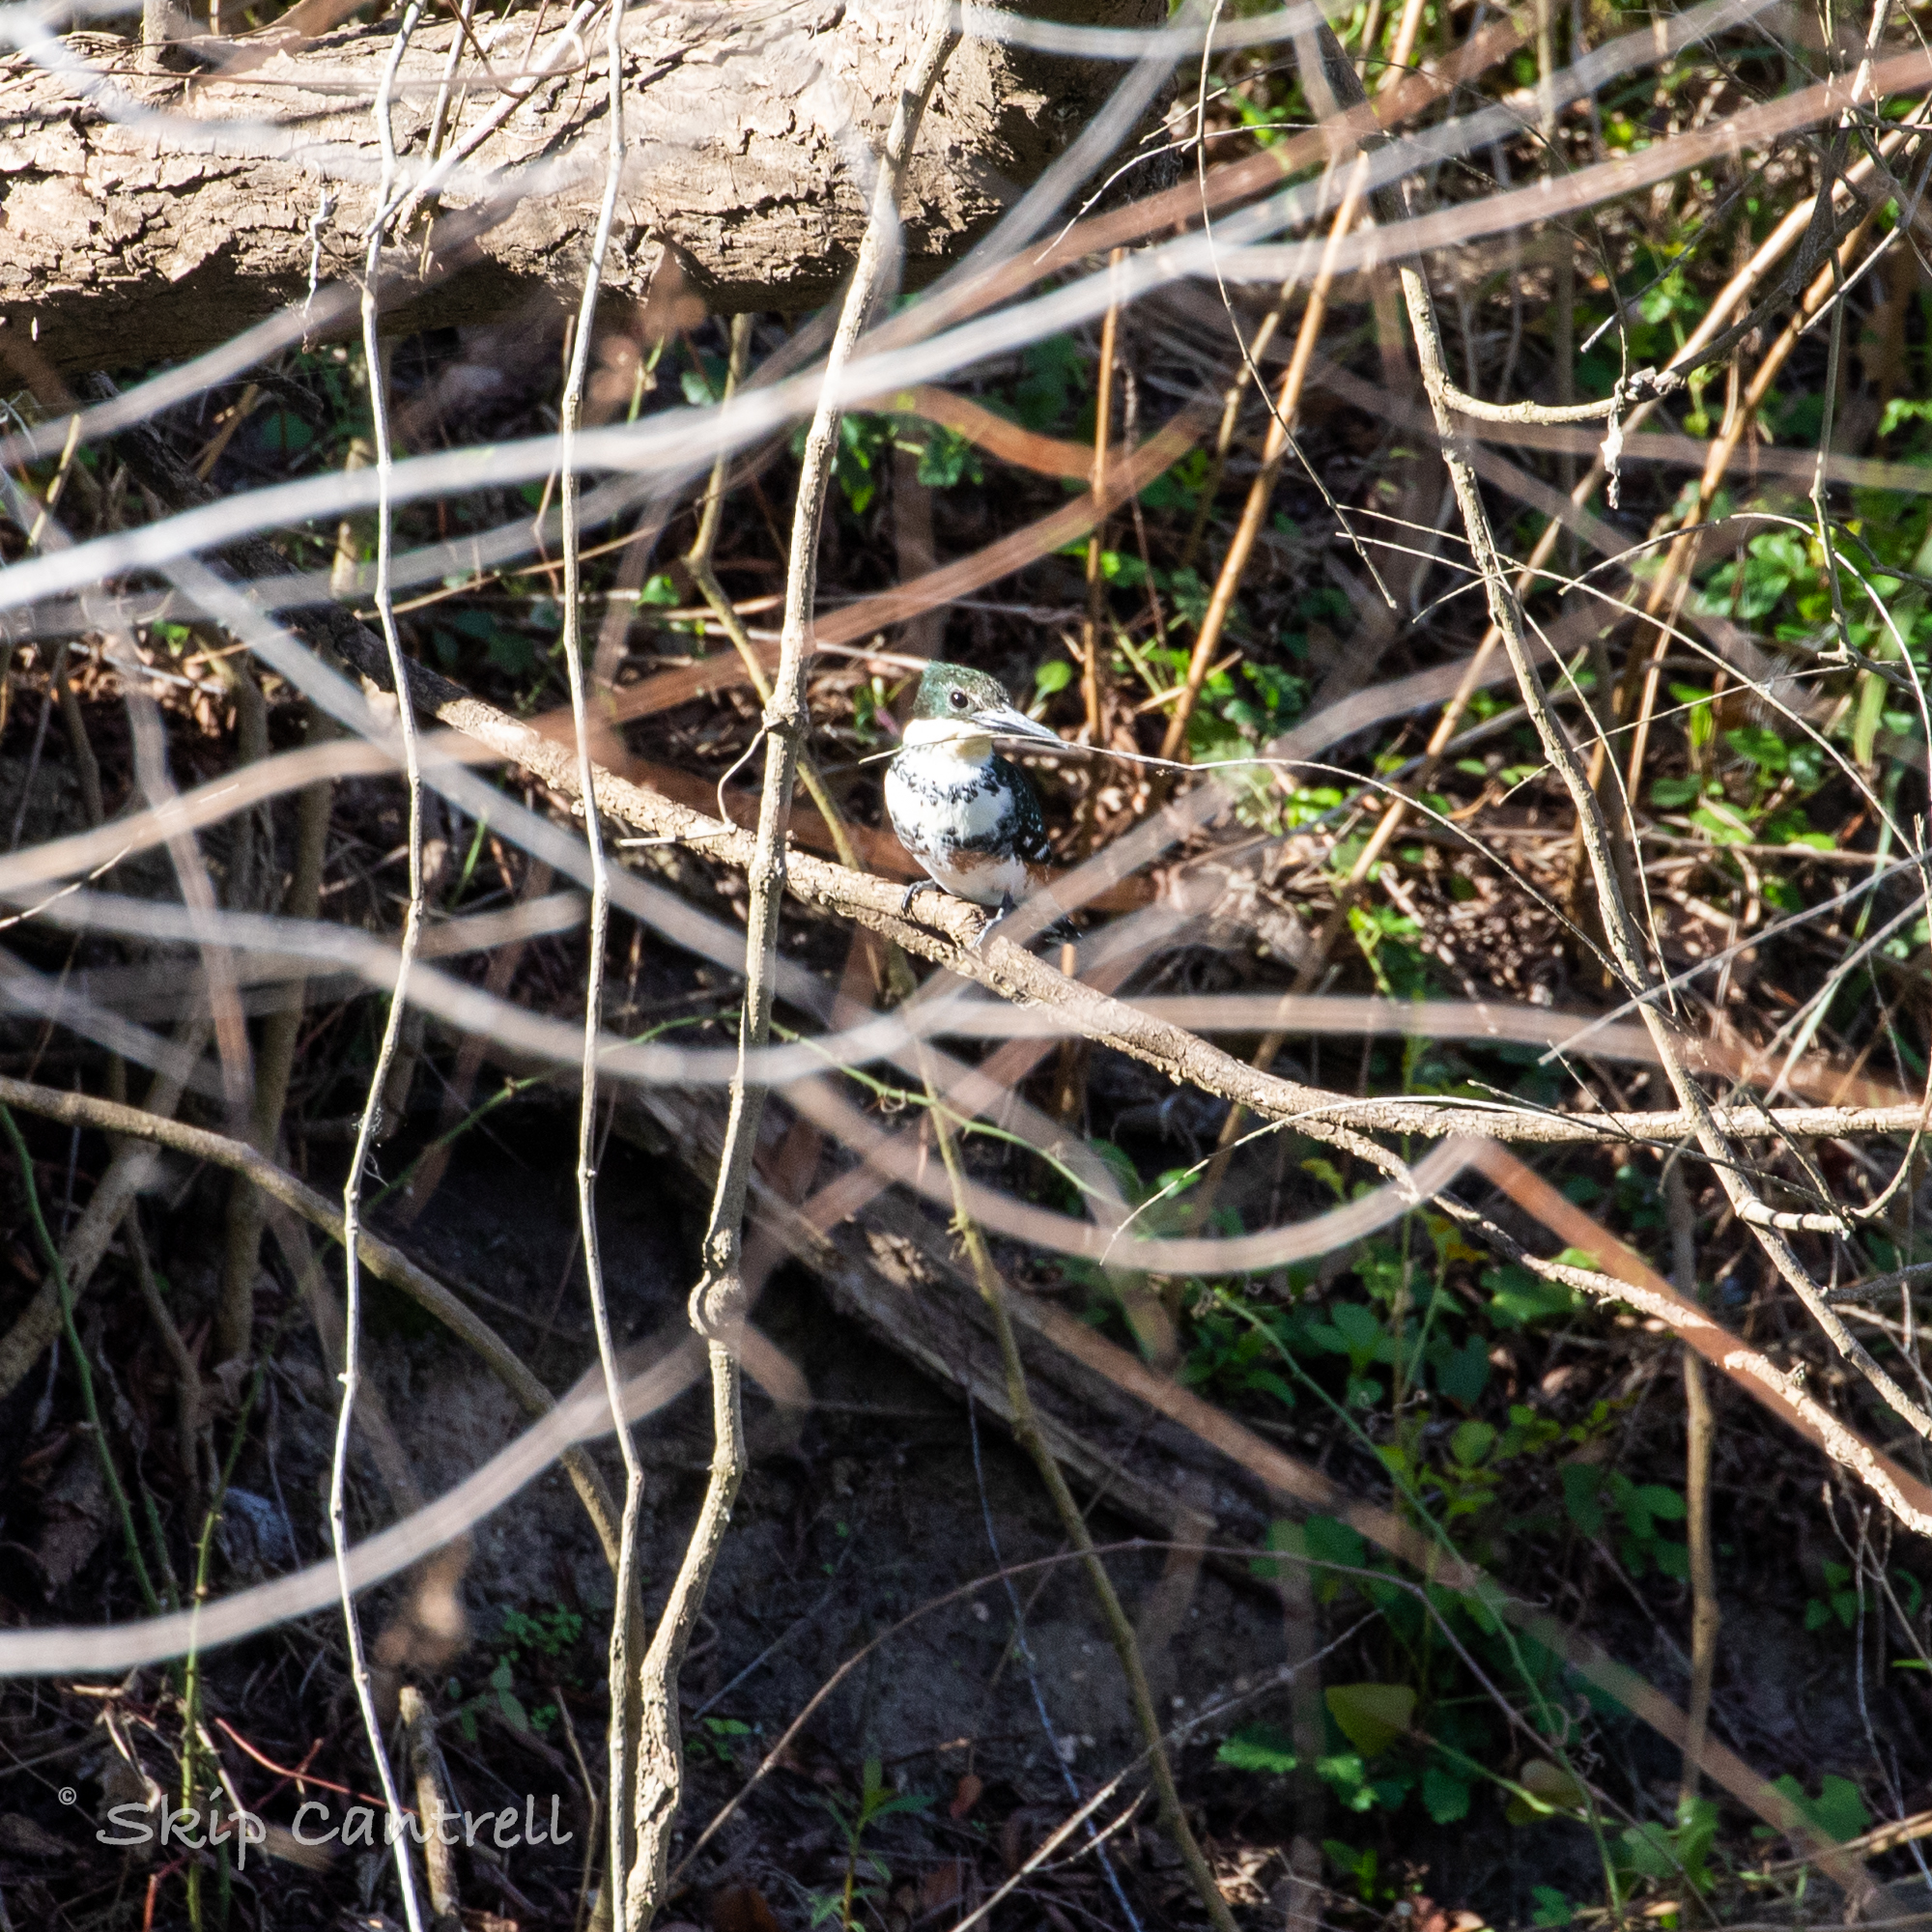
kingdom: Animalia
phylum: Chordata
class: Aves
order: Coraciiformes
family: Alcedinidae
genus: Chloroceryle
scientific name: Chloroceryle americana
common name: Green kingfisher
